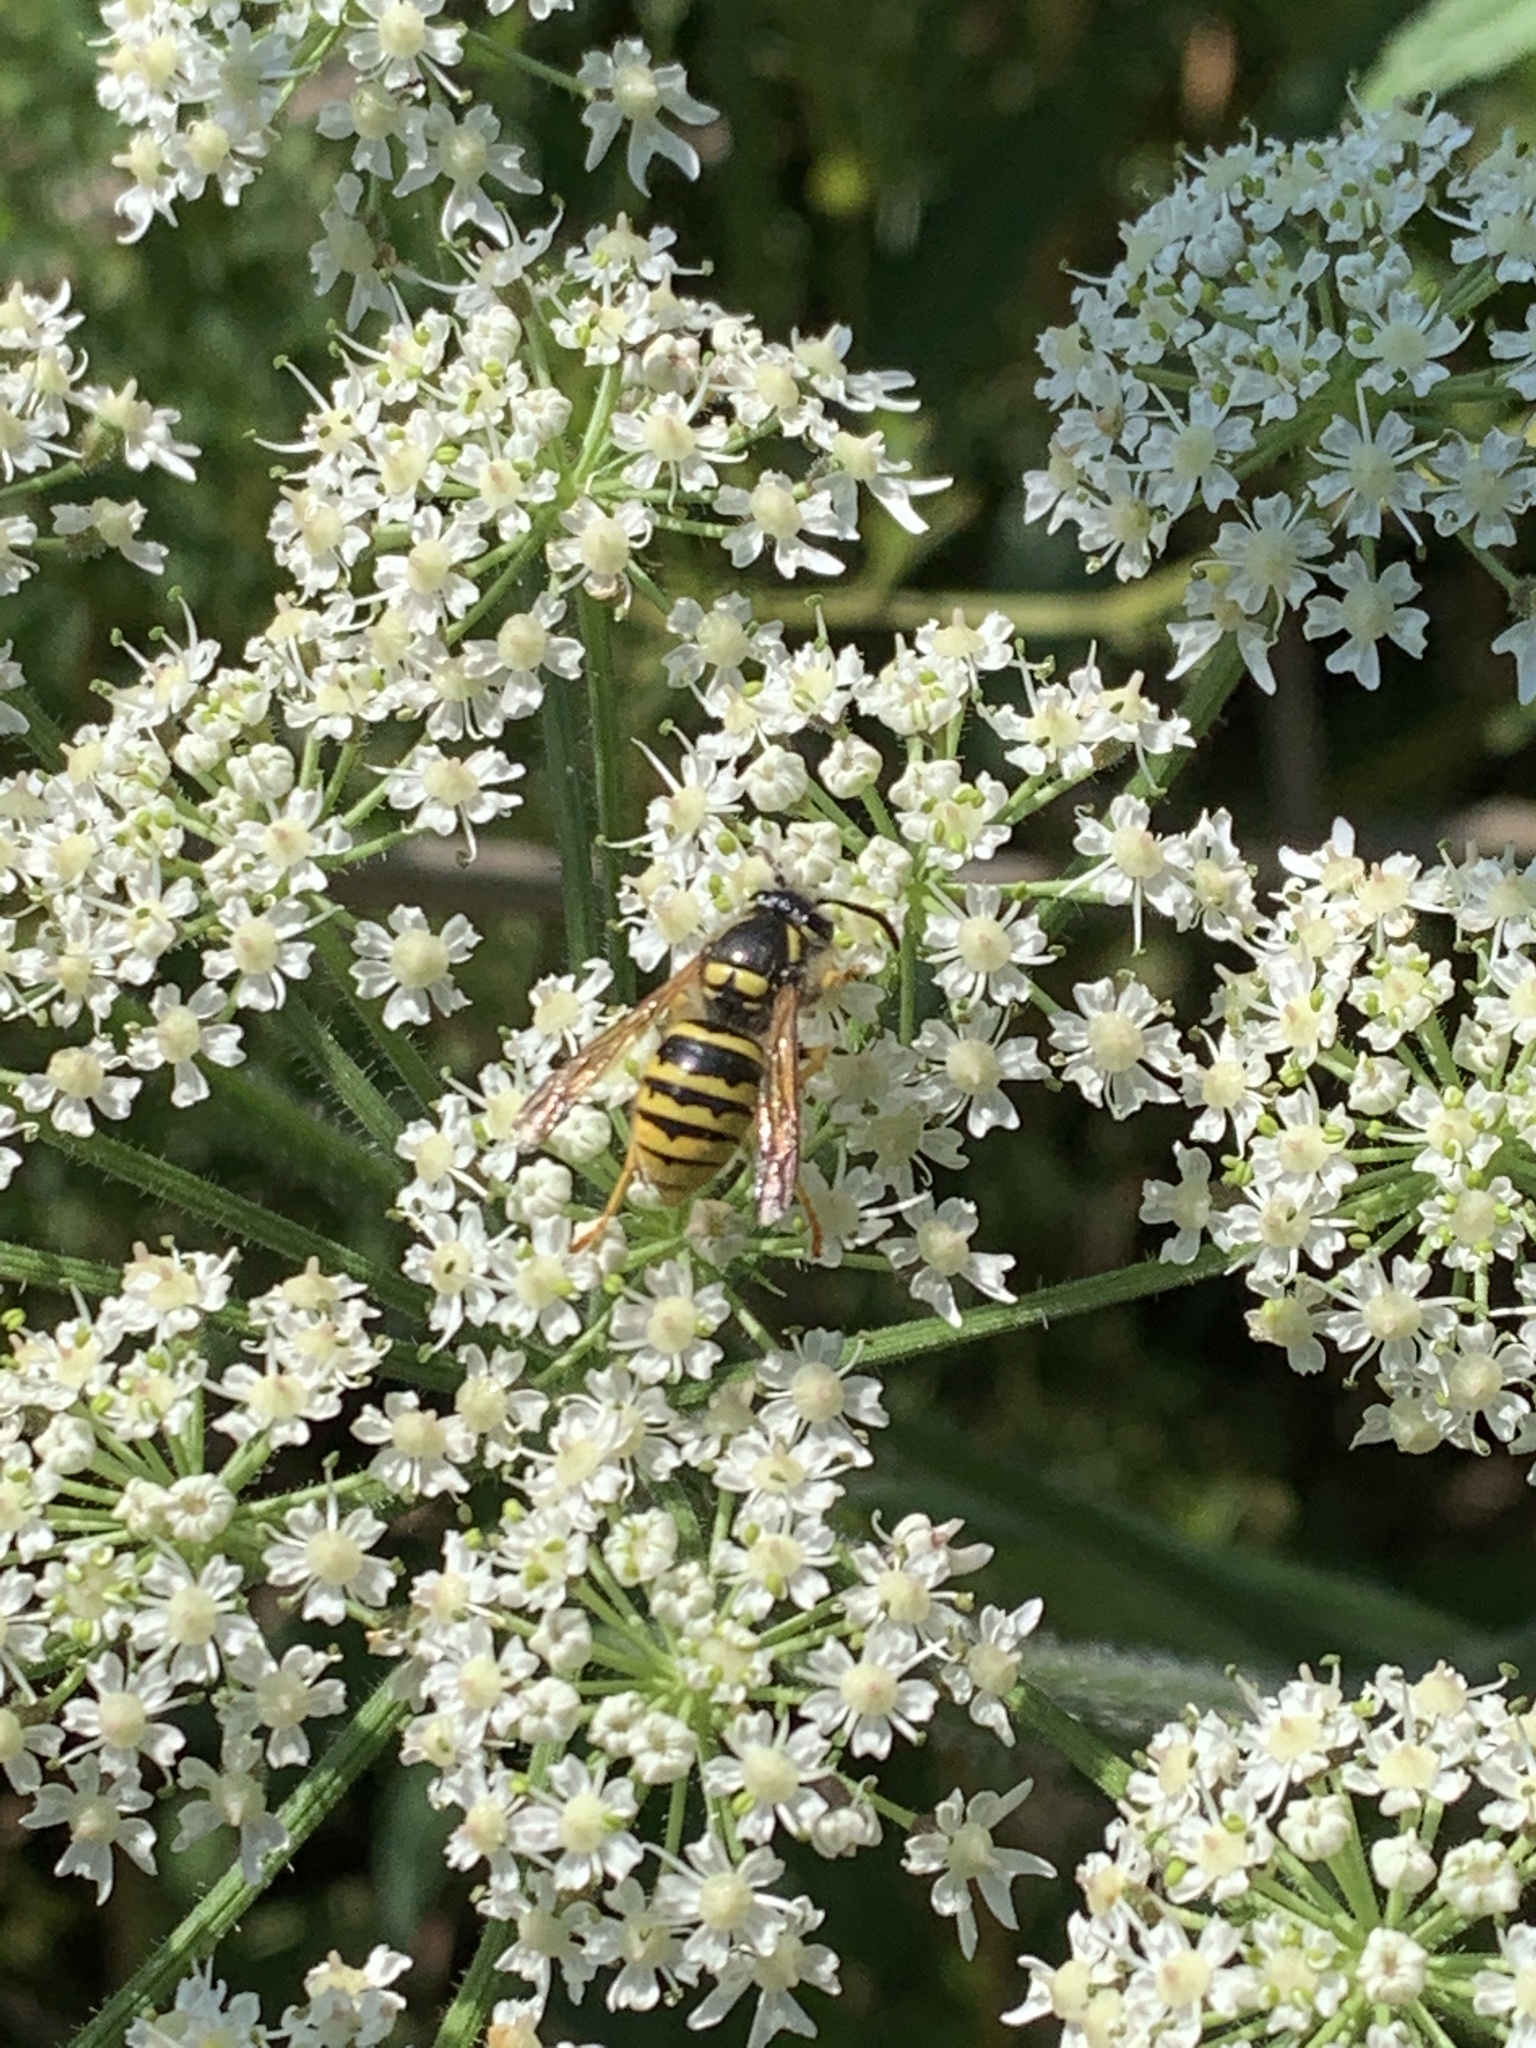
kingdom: Plantae
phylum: Tracheophyta
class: Magnoliopsida
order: Apiales
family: Apiaceae
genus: Heracleum
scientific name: Heracleum sphondylium
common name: Hogweed
